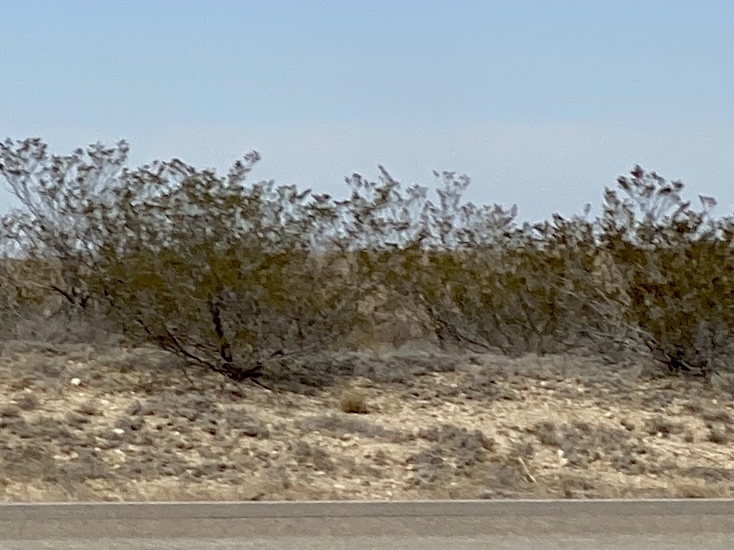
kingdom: Plantae
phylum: Tracheophyta
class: Magnoliopsida
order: Zygophyllales
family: Zygophyllaceae
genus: Larrea
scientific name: Larrea tridentata
